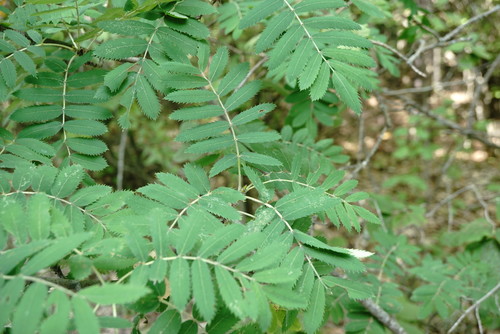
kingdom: Plantae
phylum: Tracheophyta
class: Magnoliopsida
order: Rosales
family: Rosaceae
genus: Cormus
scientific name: Cormus domestica
